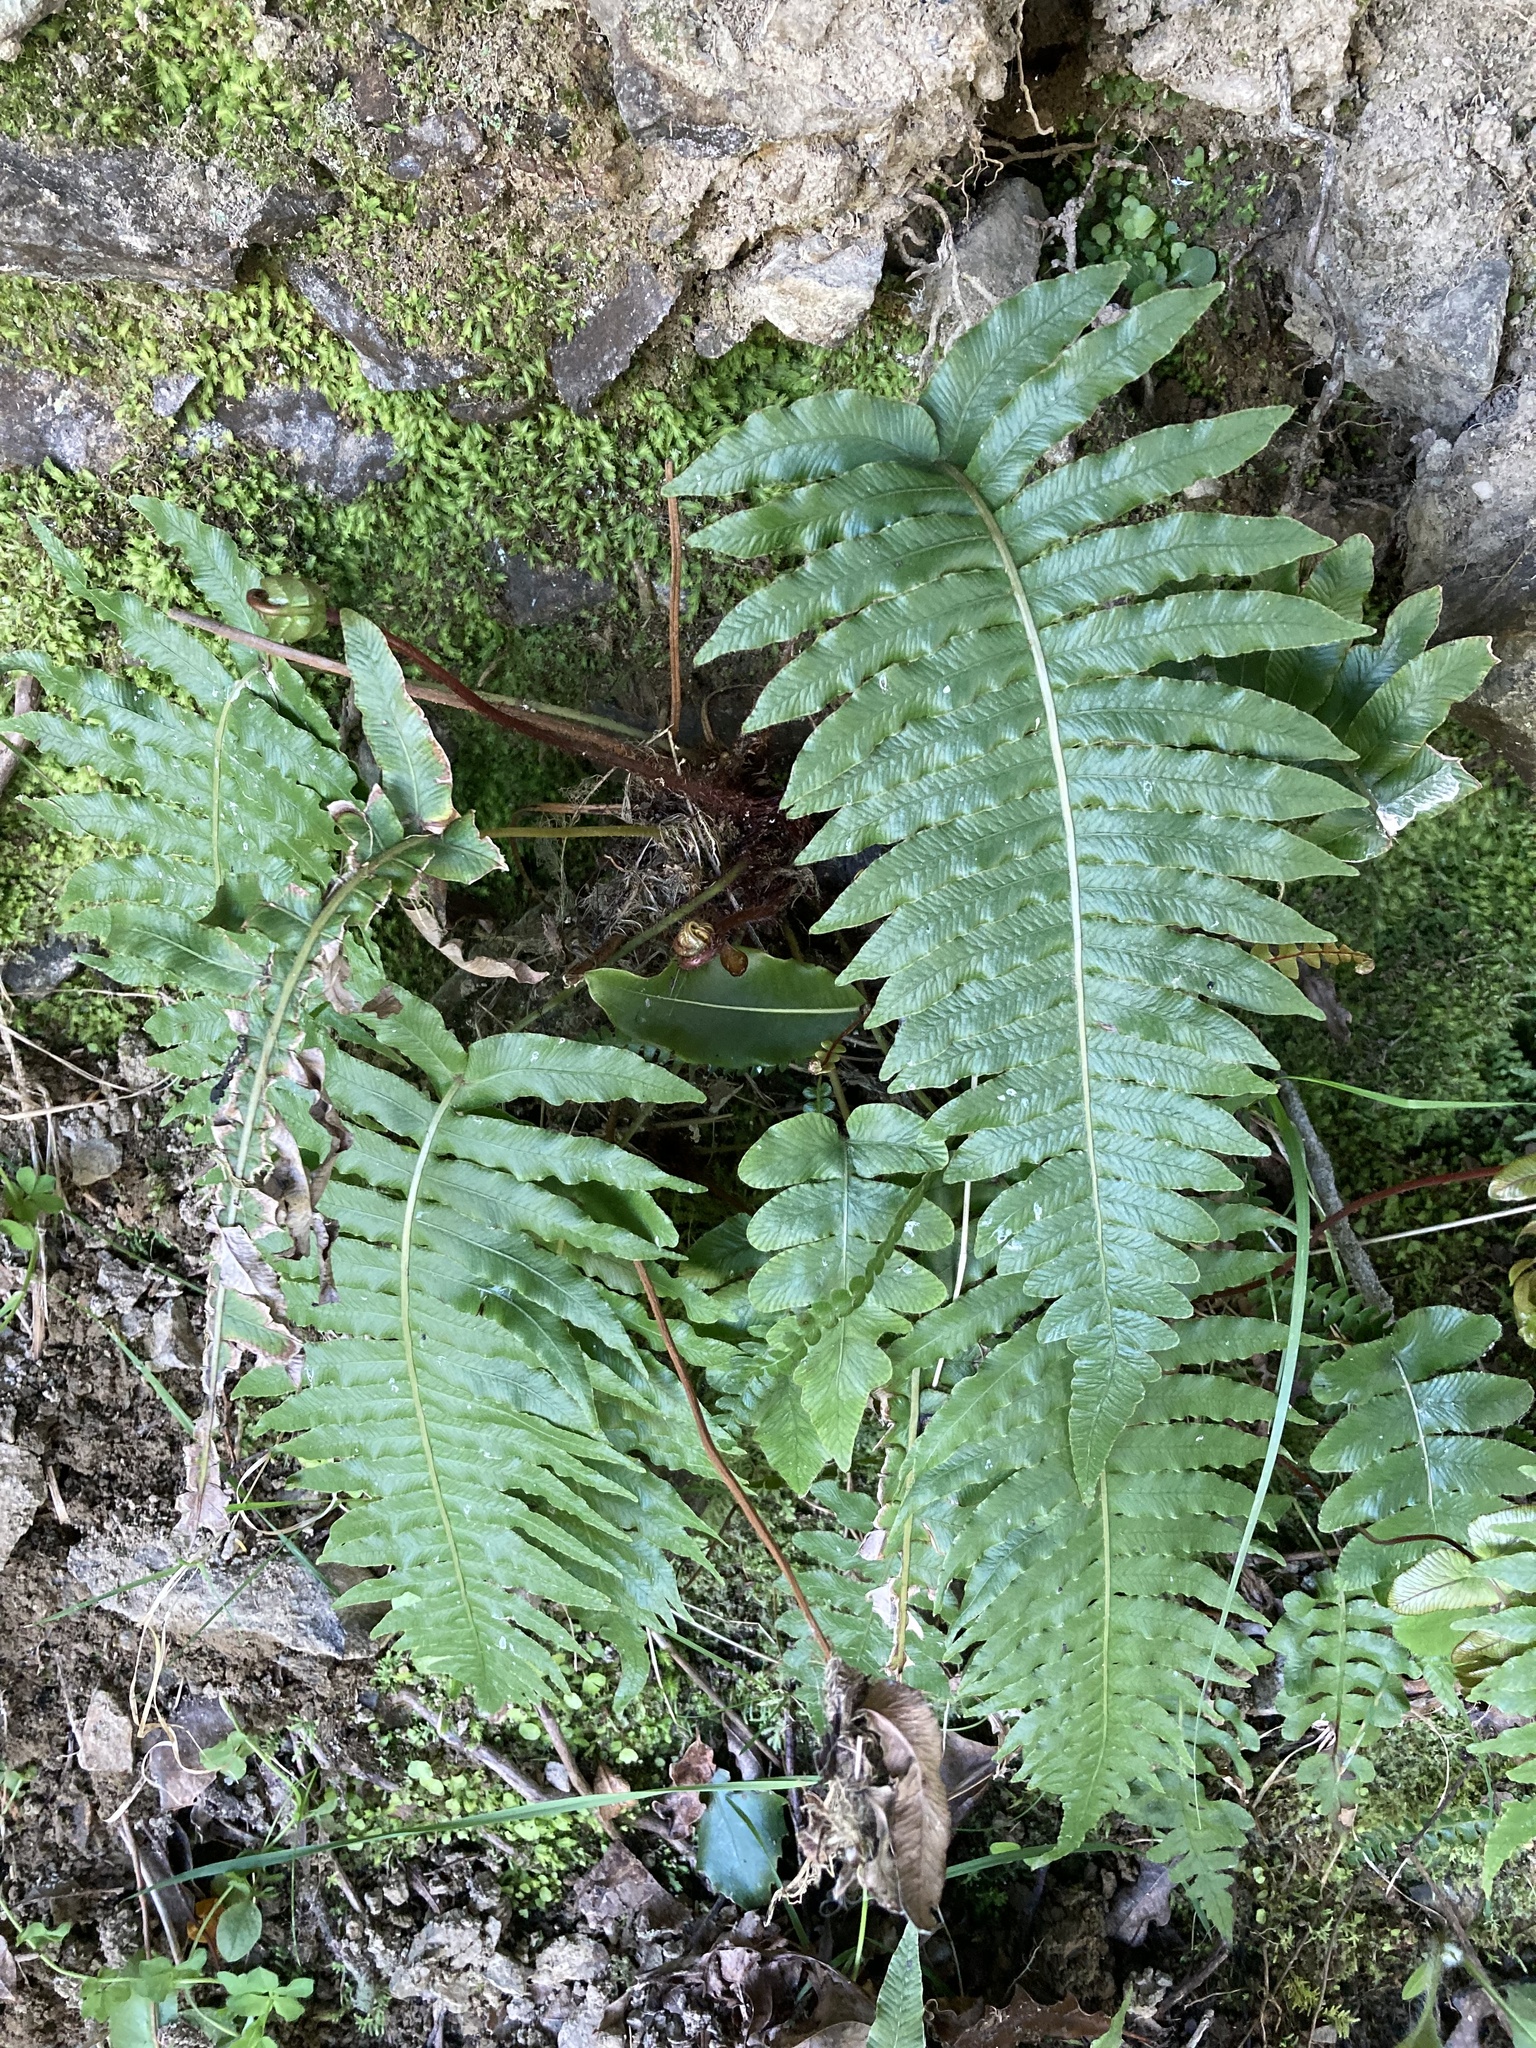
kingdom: Plantae
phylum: Tracheophyta
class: Polypodiopsida
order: Polypodiales
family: Blechnaceae
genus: Cranfillia
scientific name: Cranfillia deltoides
